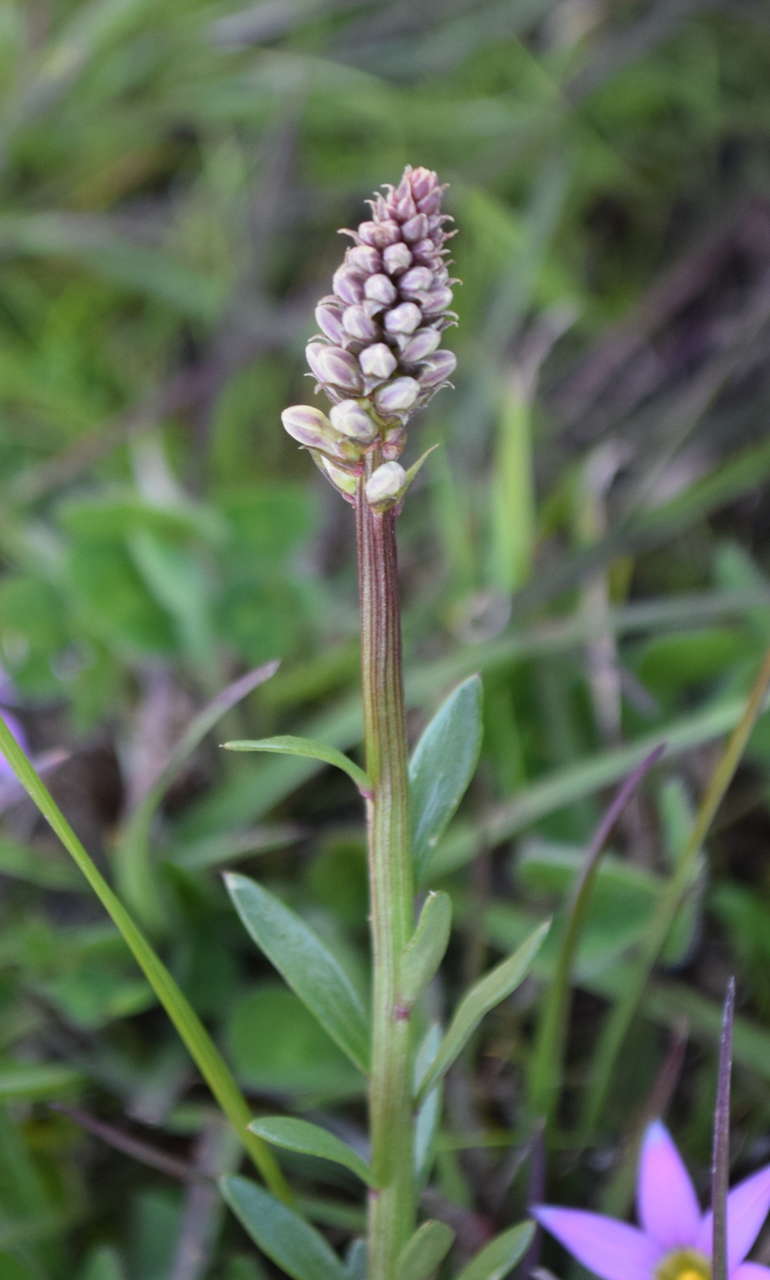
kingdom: Plantae
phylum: Tracheophyta
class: Magnoliopsida
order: Celastrales
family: Celastraceae
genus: Stackhousia
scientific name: Stackhousia subterranea
